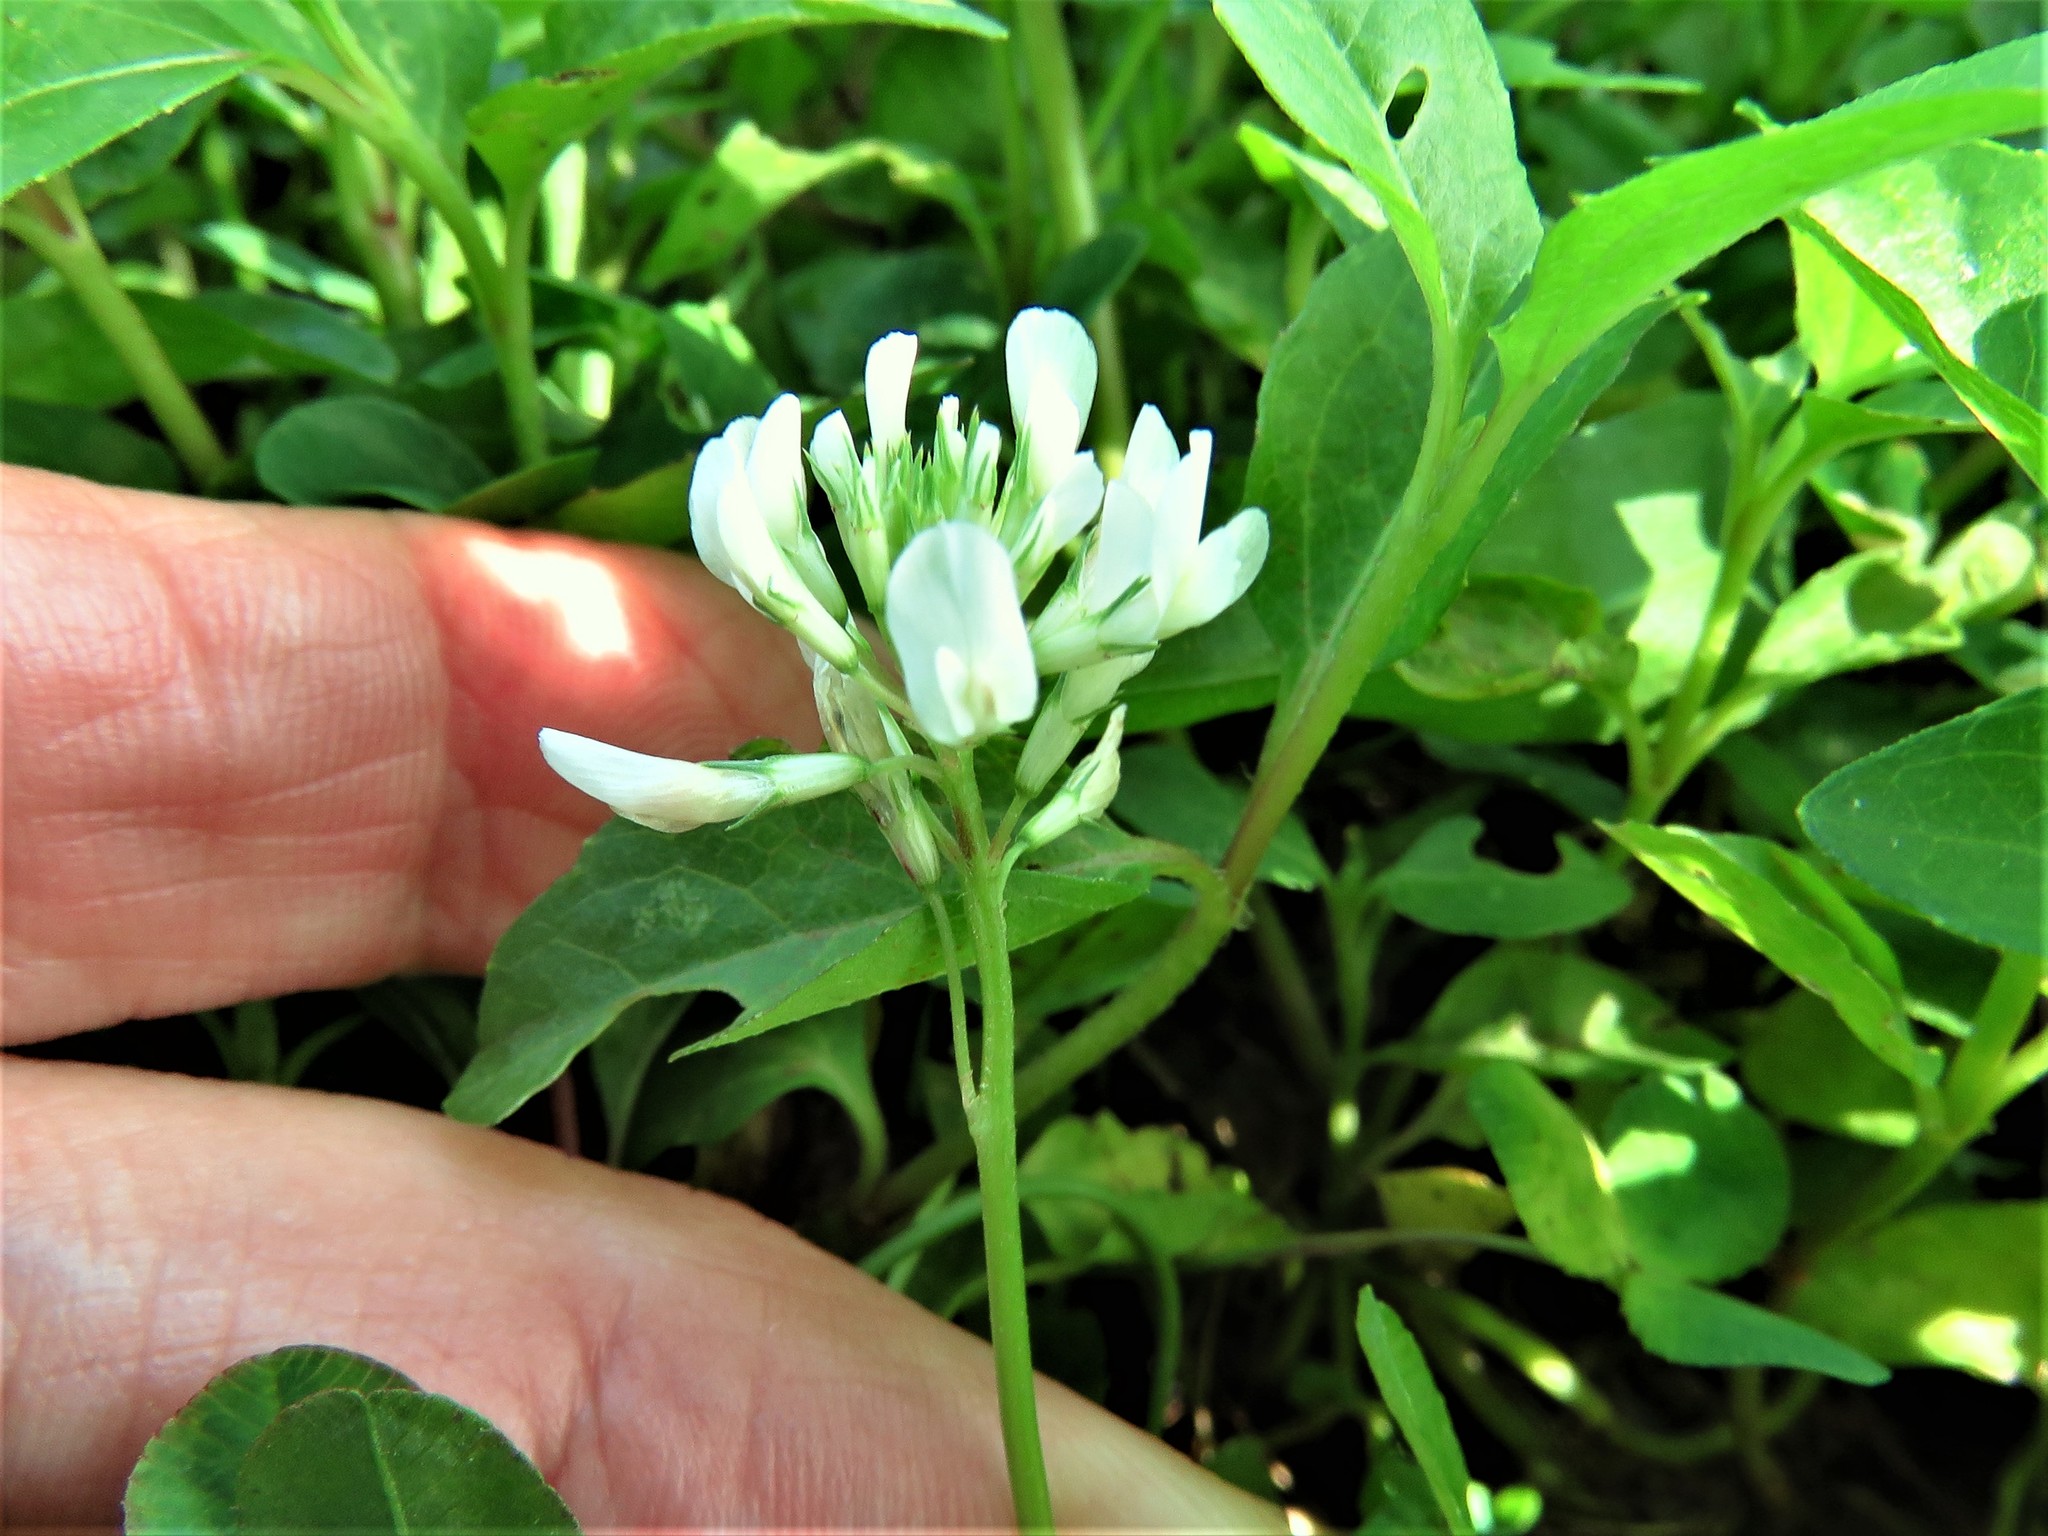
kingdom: Plantae
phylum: Tracheophyta
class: Magnoliopsida
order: Fabales
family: Fabaceae
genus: Trifolium
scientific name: Trifolium repens
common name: White clover
